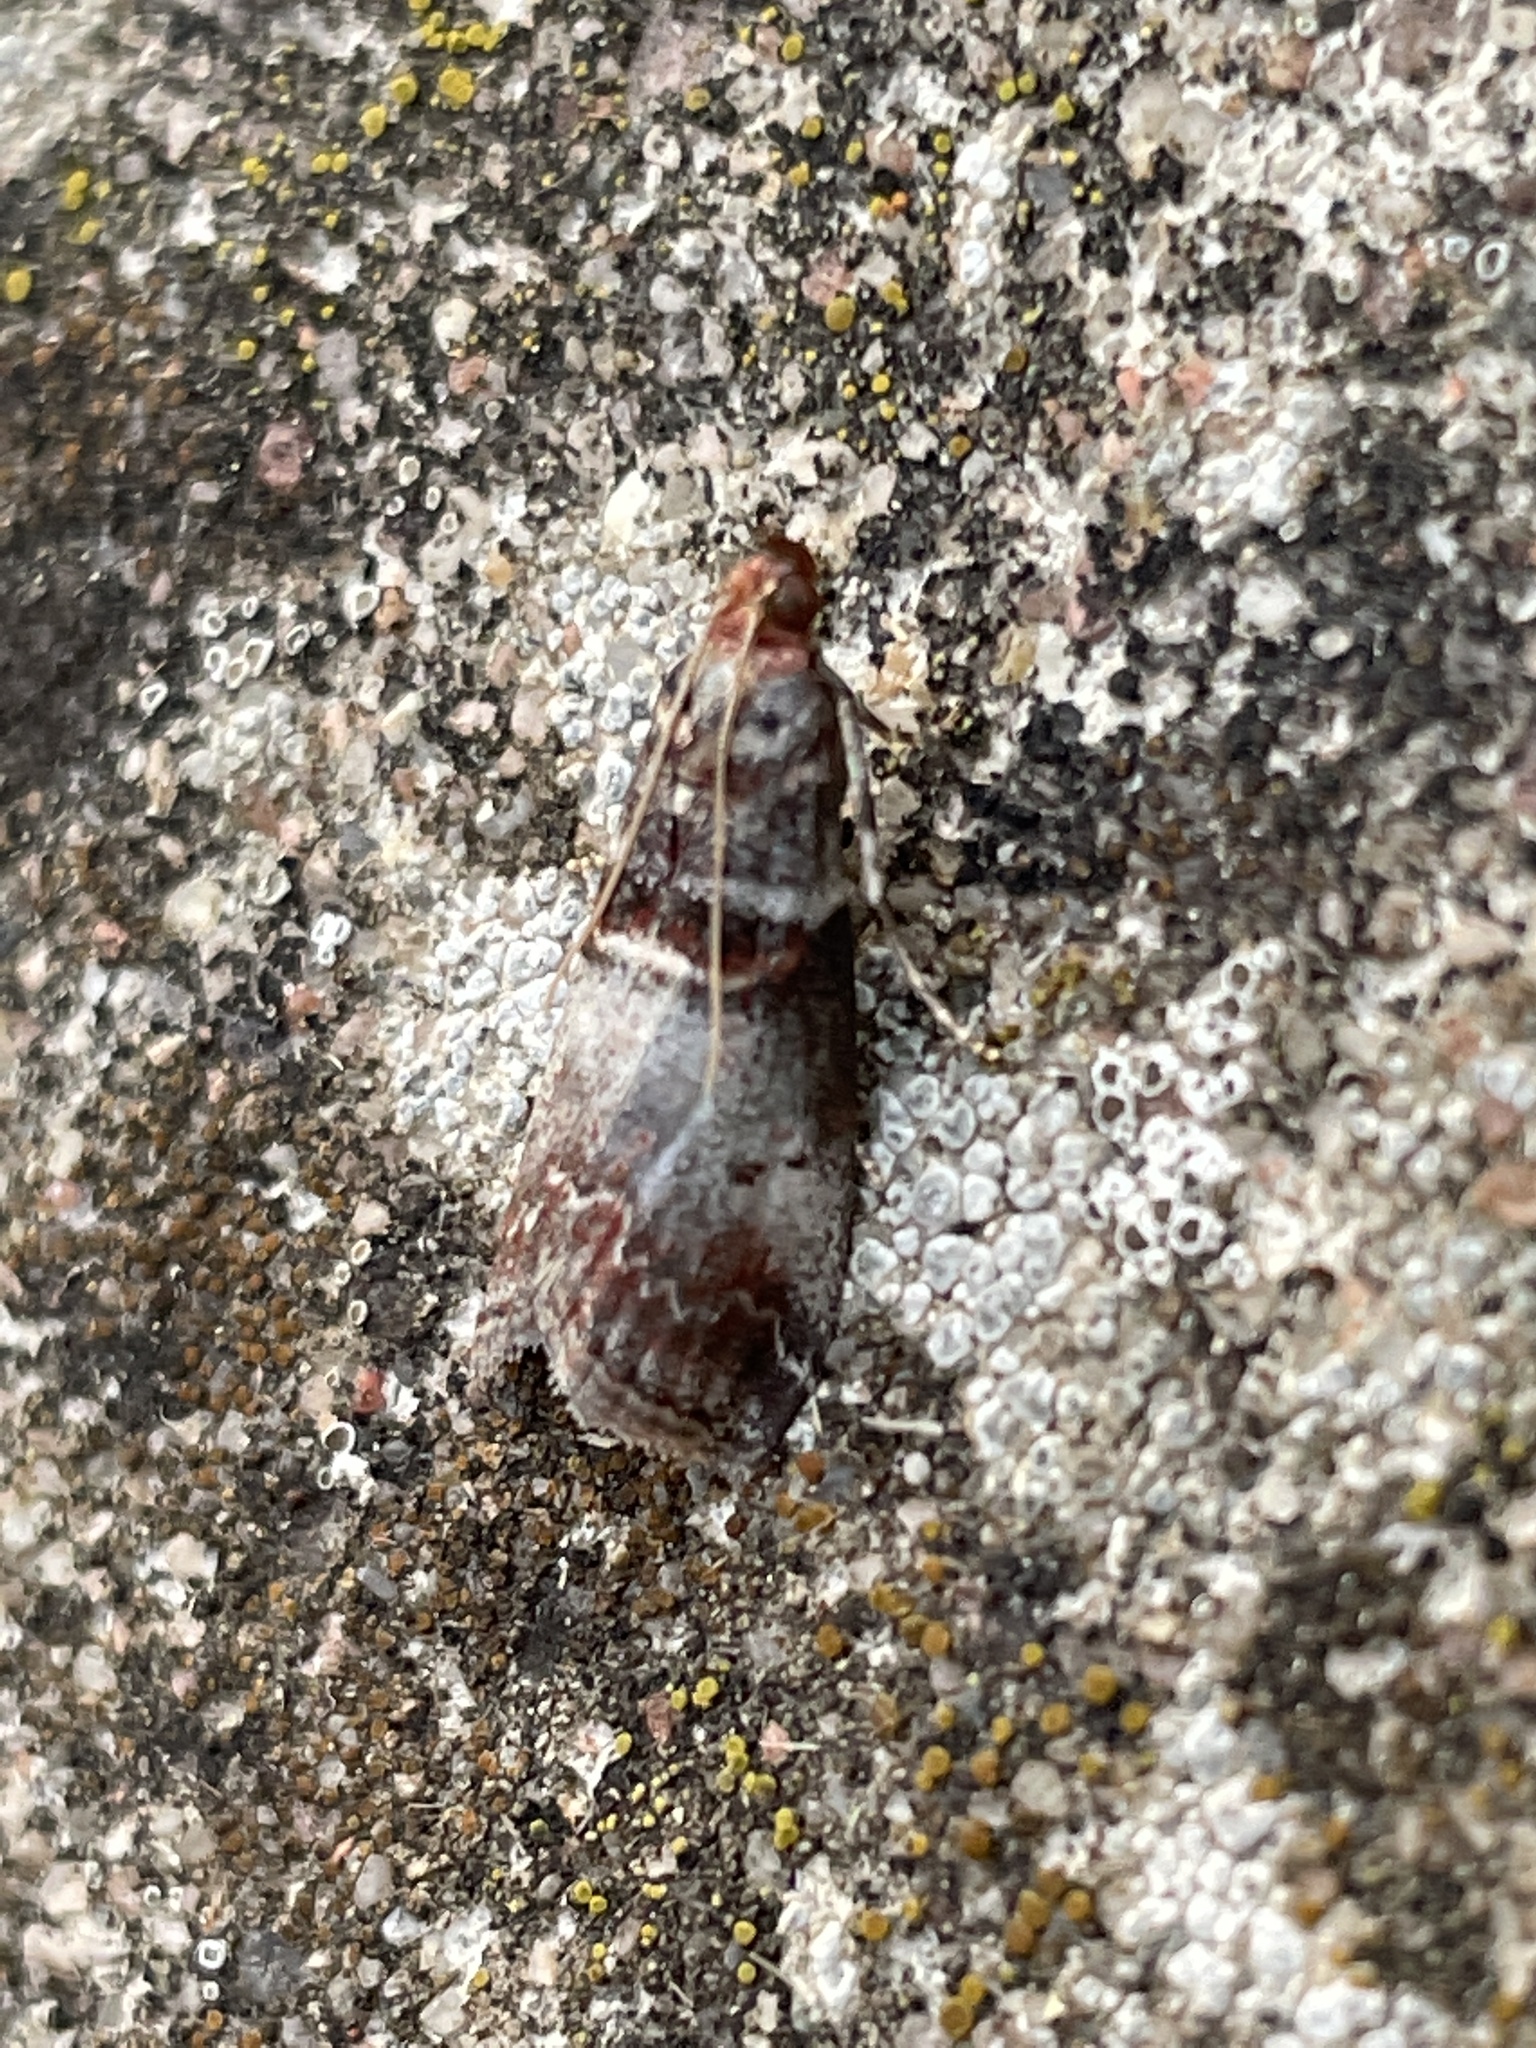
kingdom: Animalia
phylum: Arthropoda
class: Insecta
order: Lepidoptera
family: Pyralidae
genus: Acrobasis
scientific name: Acrobasis advenella
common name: Grey knot-horn
